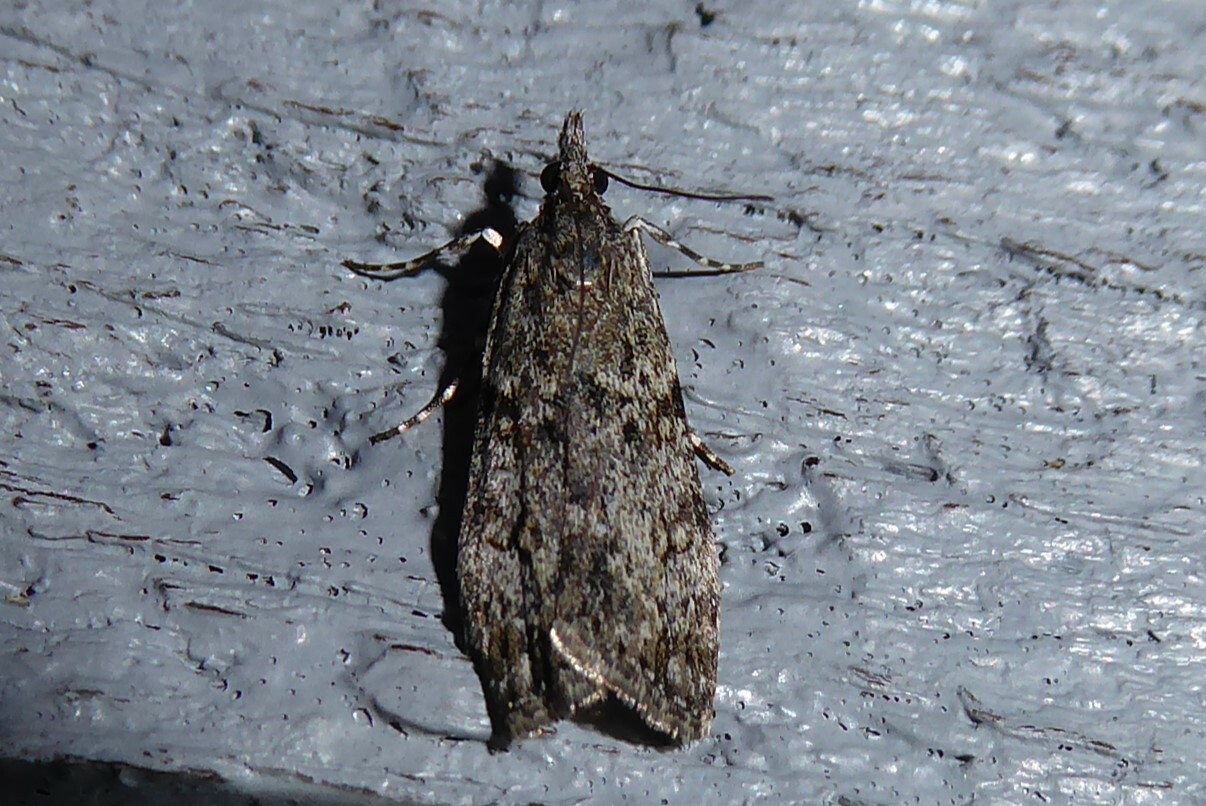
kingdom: Animalia
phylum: Arthropoda
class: Insecta
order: Lepidoptera
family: Crambidae
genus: Eudonia
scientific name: Eudonia cymatias
